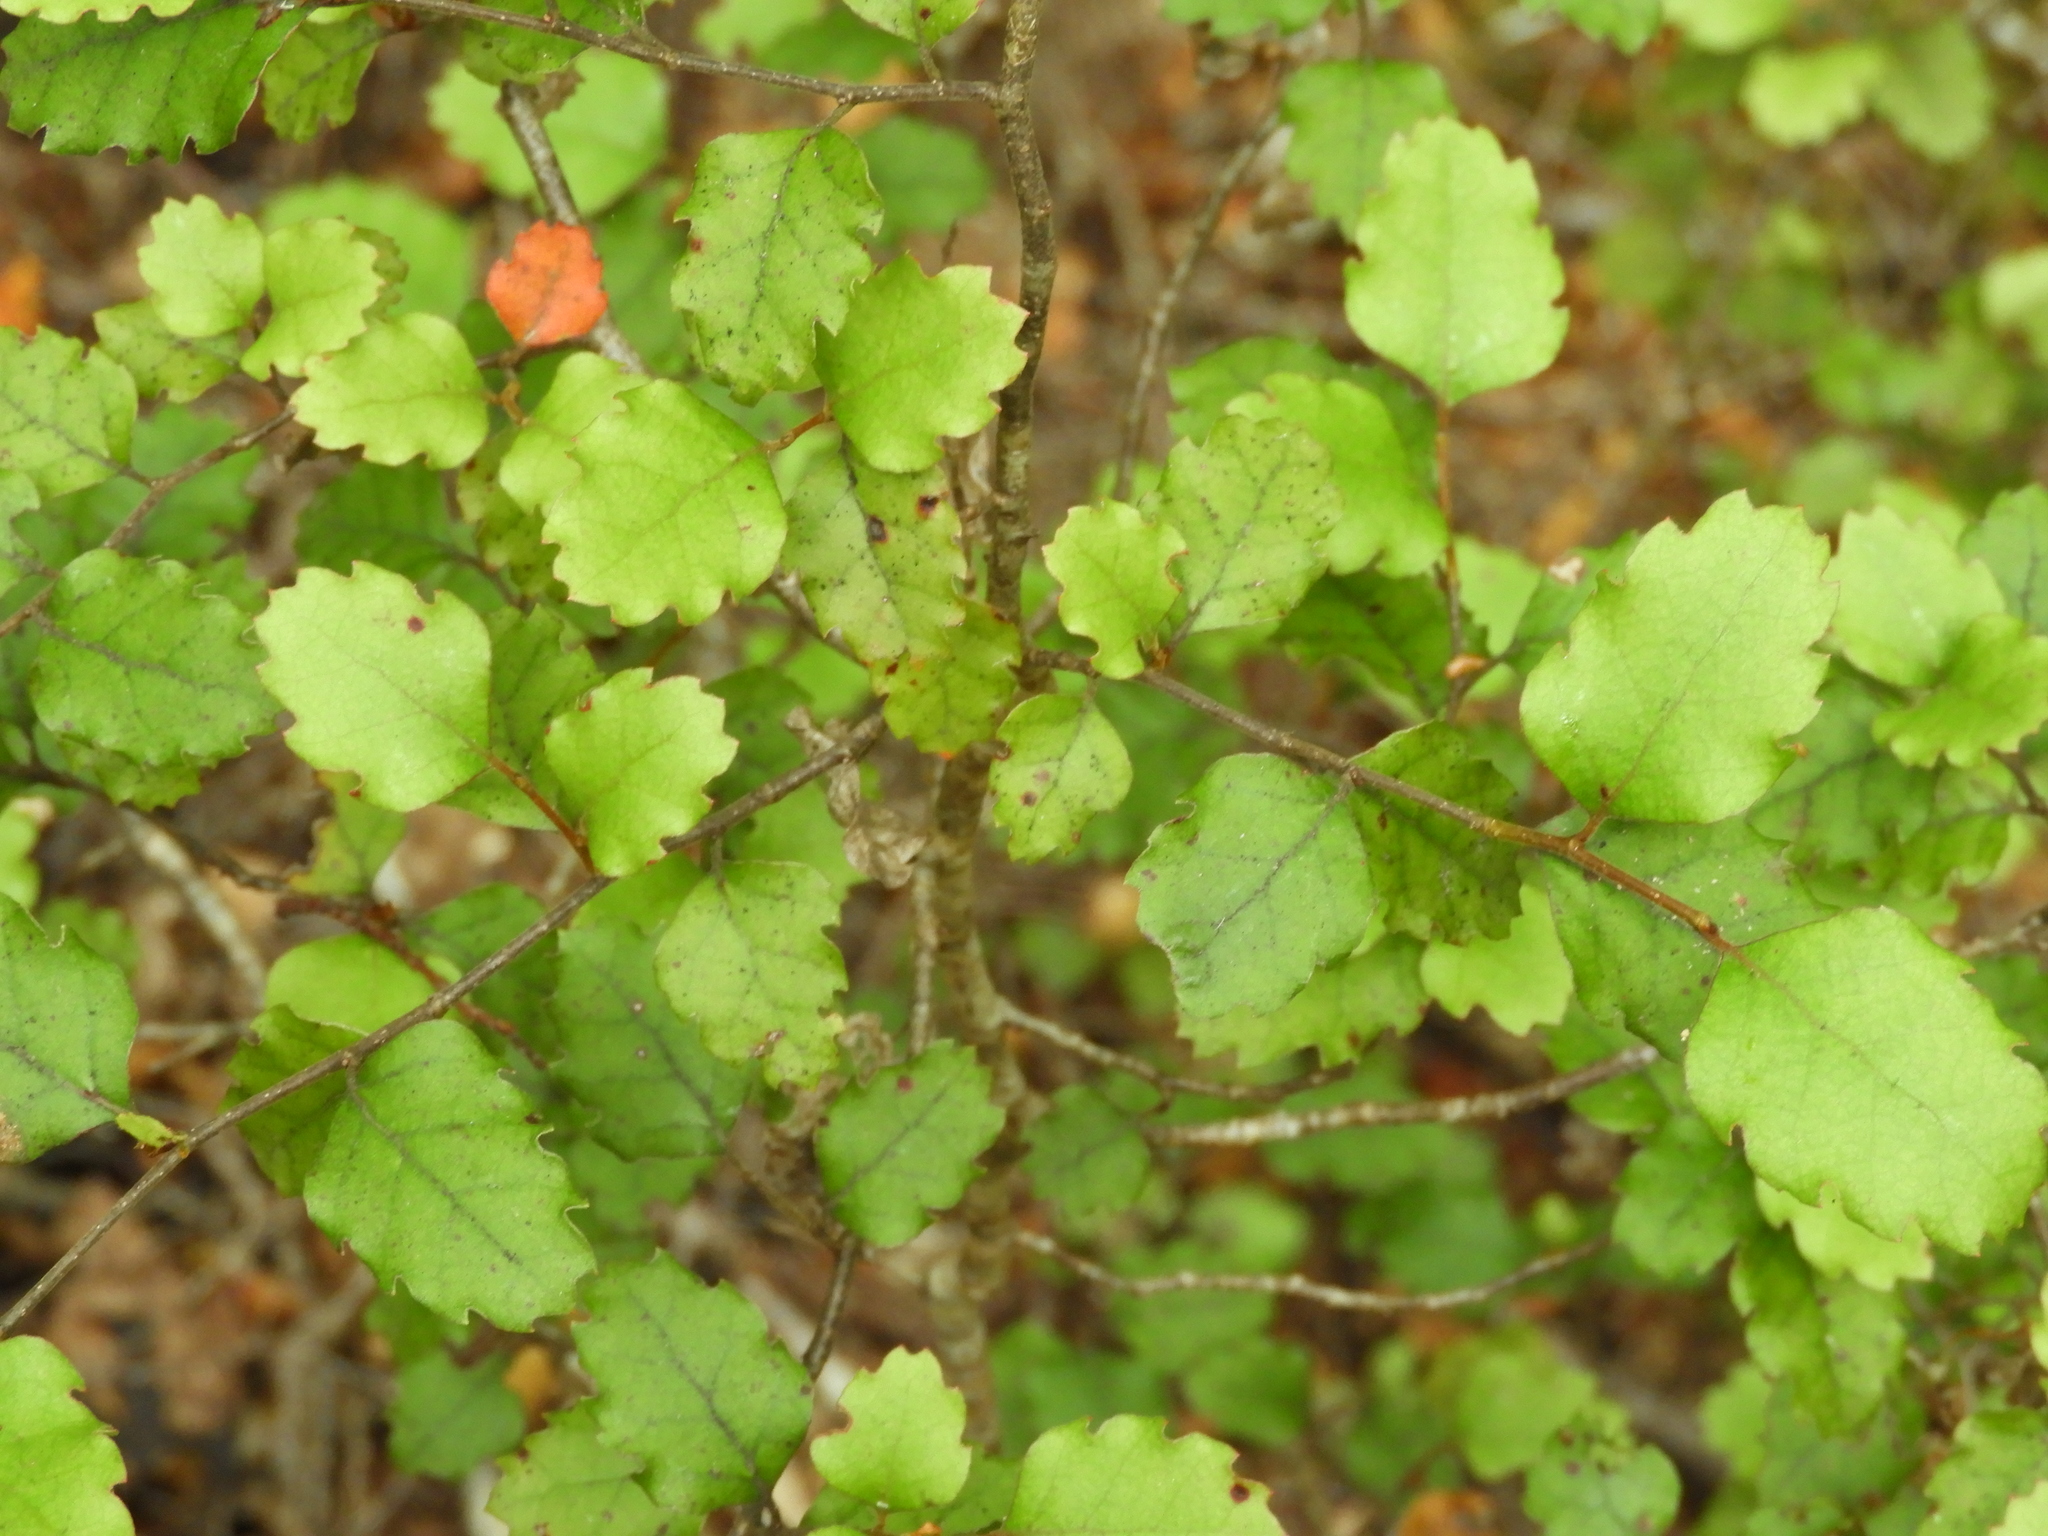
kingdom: Plantae
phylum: Tracheophyta
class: Magnoliopsida
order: Fagales
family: Nothofagaceae
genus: Nothofagus
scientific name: Nothofagus fusca
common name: Red beech
